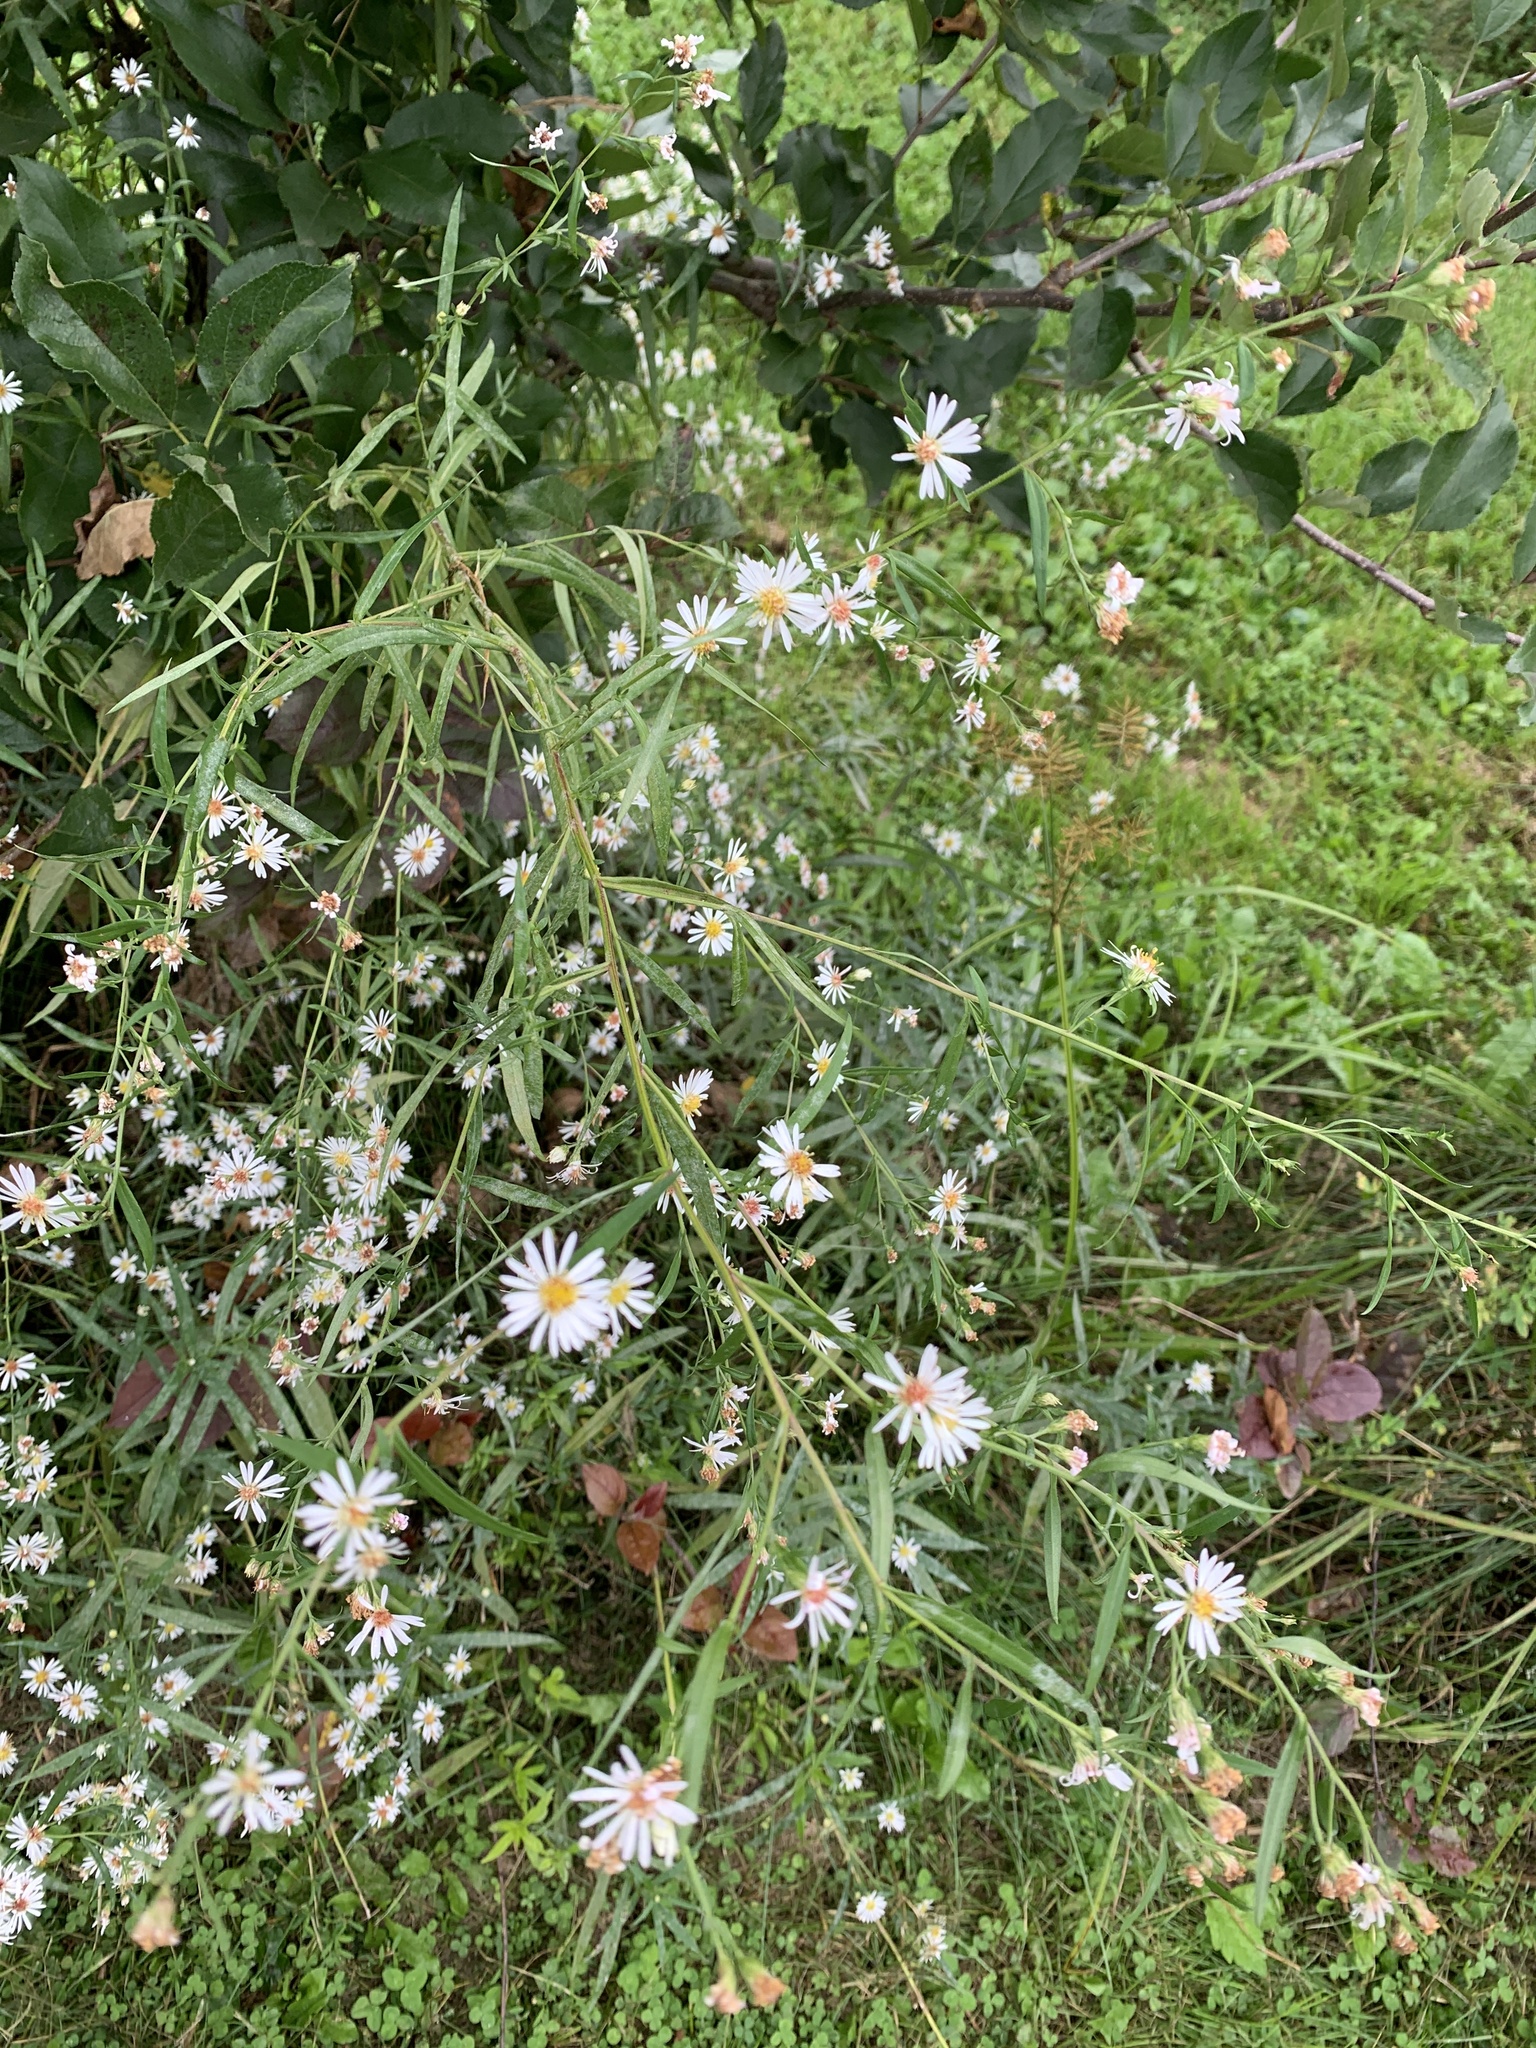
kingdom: Plantae
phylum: Tracheophyta
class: Magnoliopsida
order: Asterales
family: Asteraceae
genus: Symphyotrichum
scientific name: Symphyotrichum lanceolatum
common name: Panicled aster
